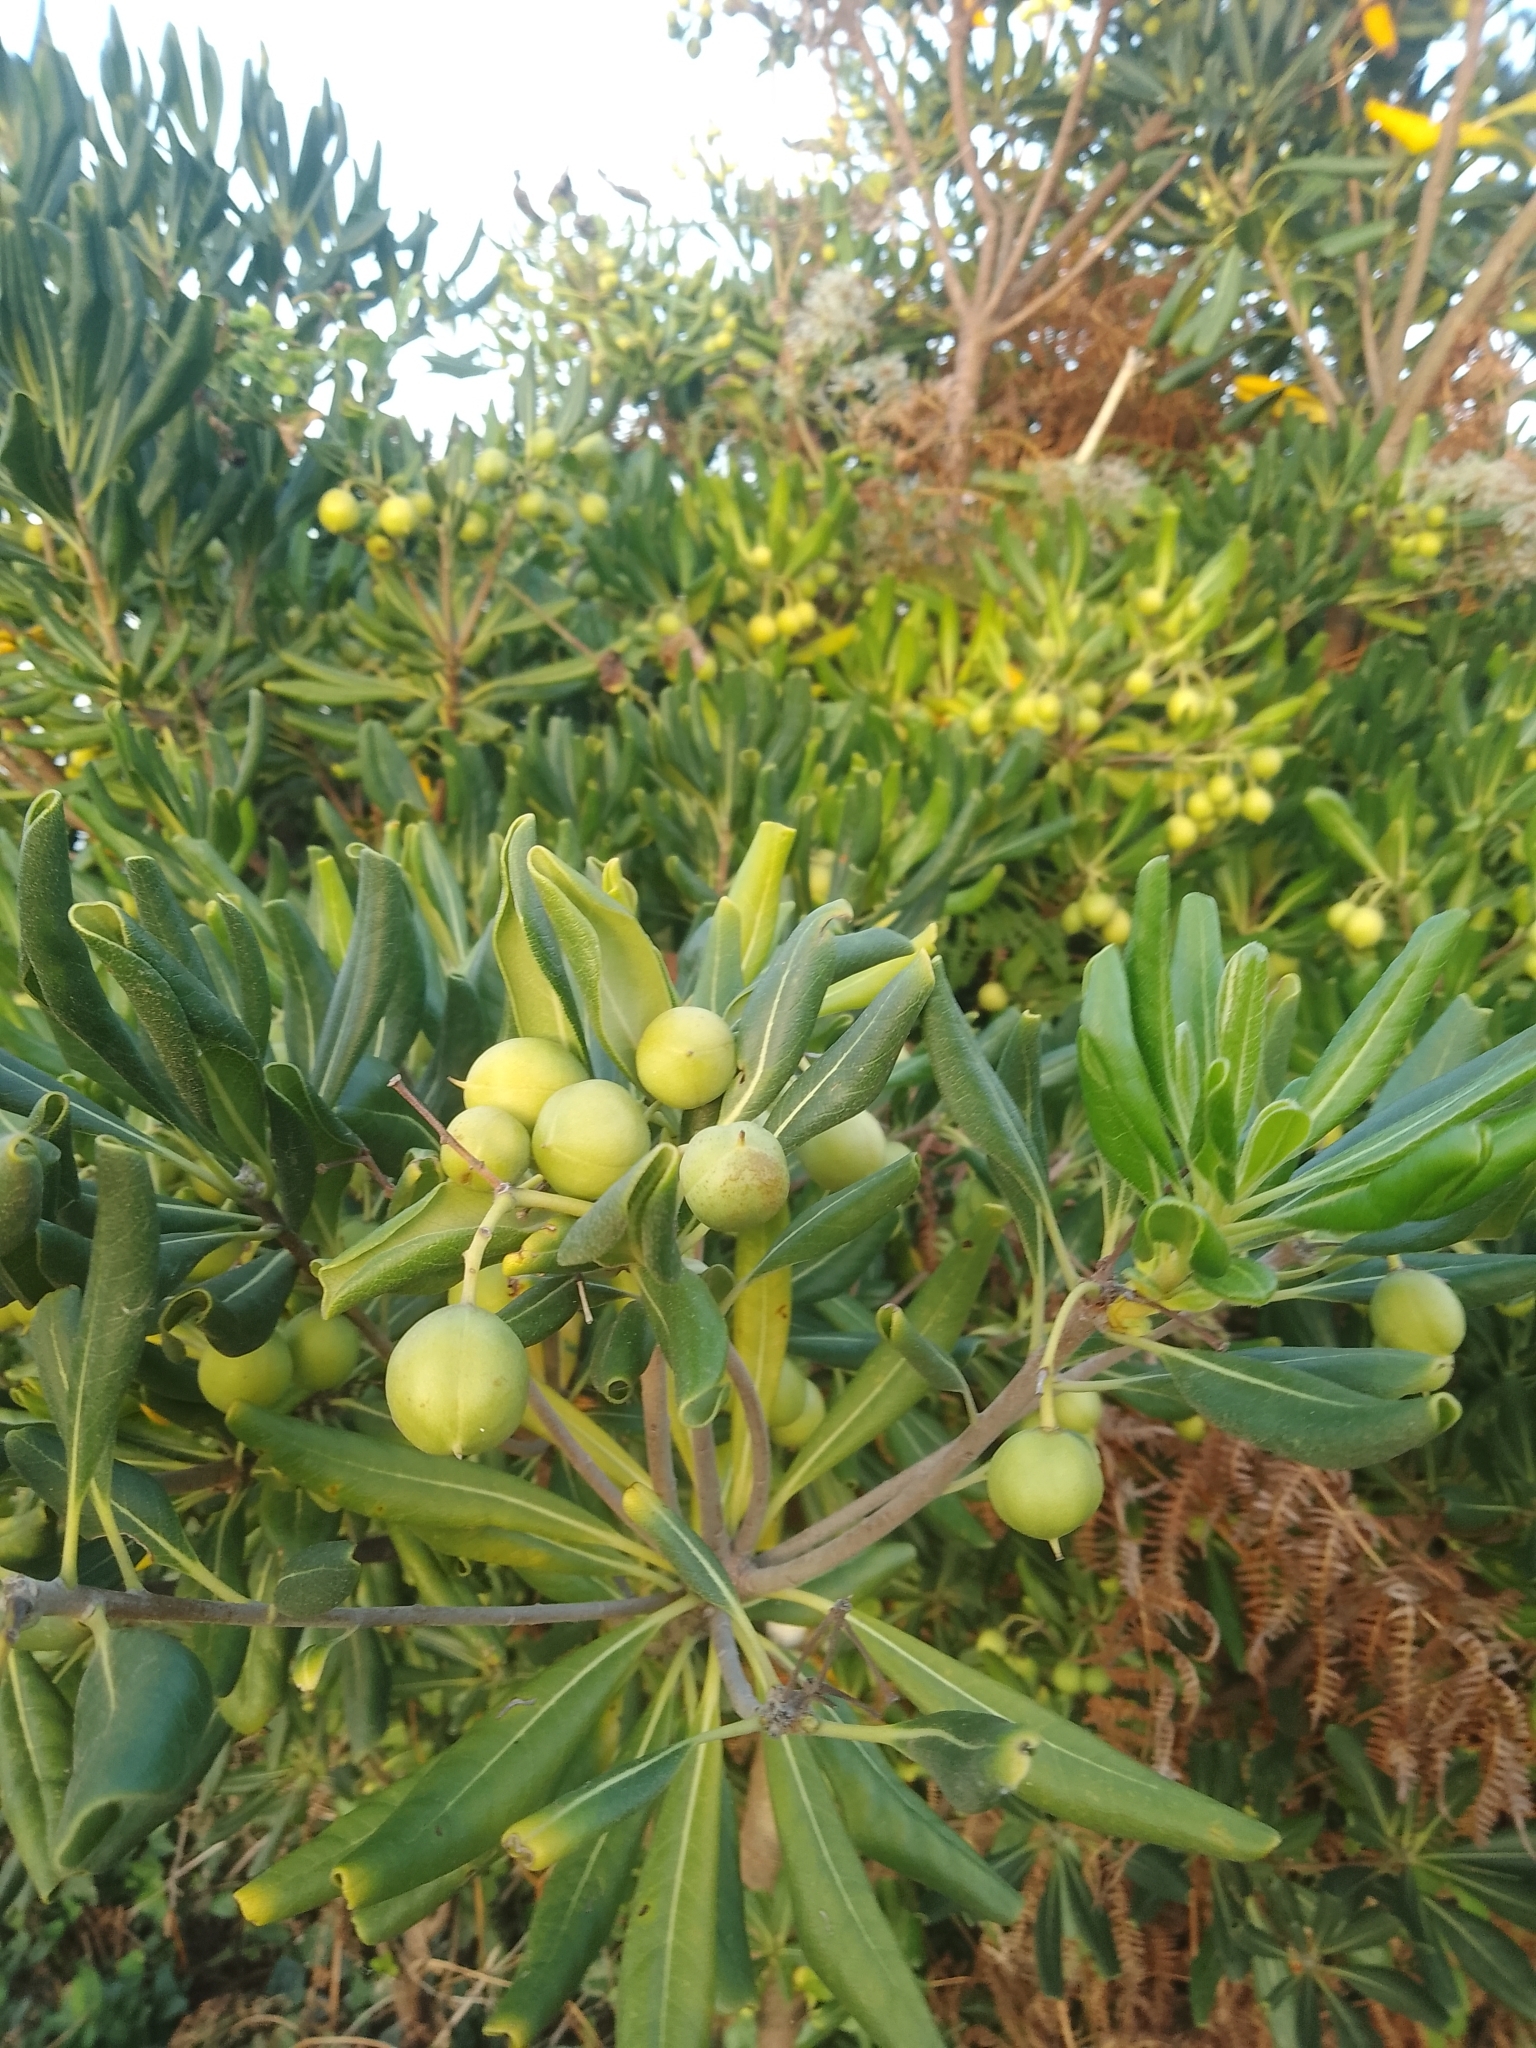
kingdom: Plantae
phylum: Tracheophyta
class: Magnoliopsida
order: Apiales
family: Pittosporaceae
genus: Pittosporum
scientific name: Pittosporum tobira
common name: Japanese cheesewood
